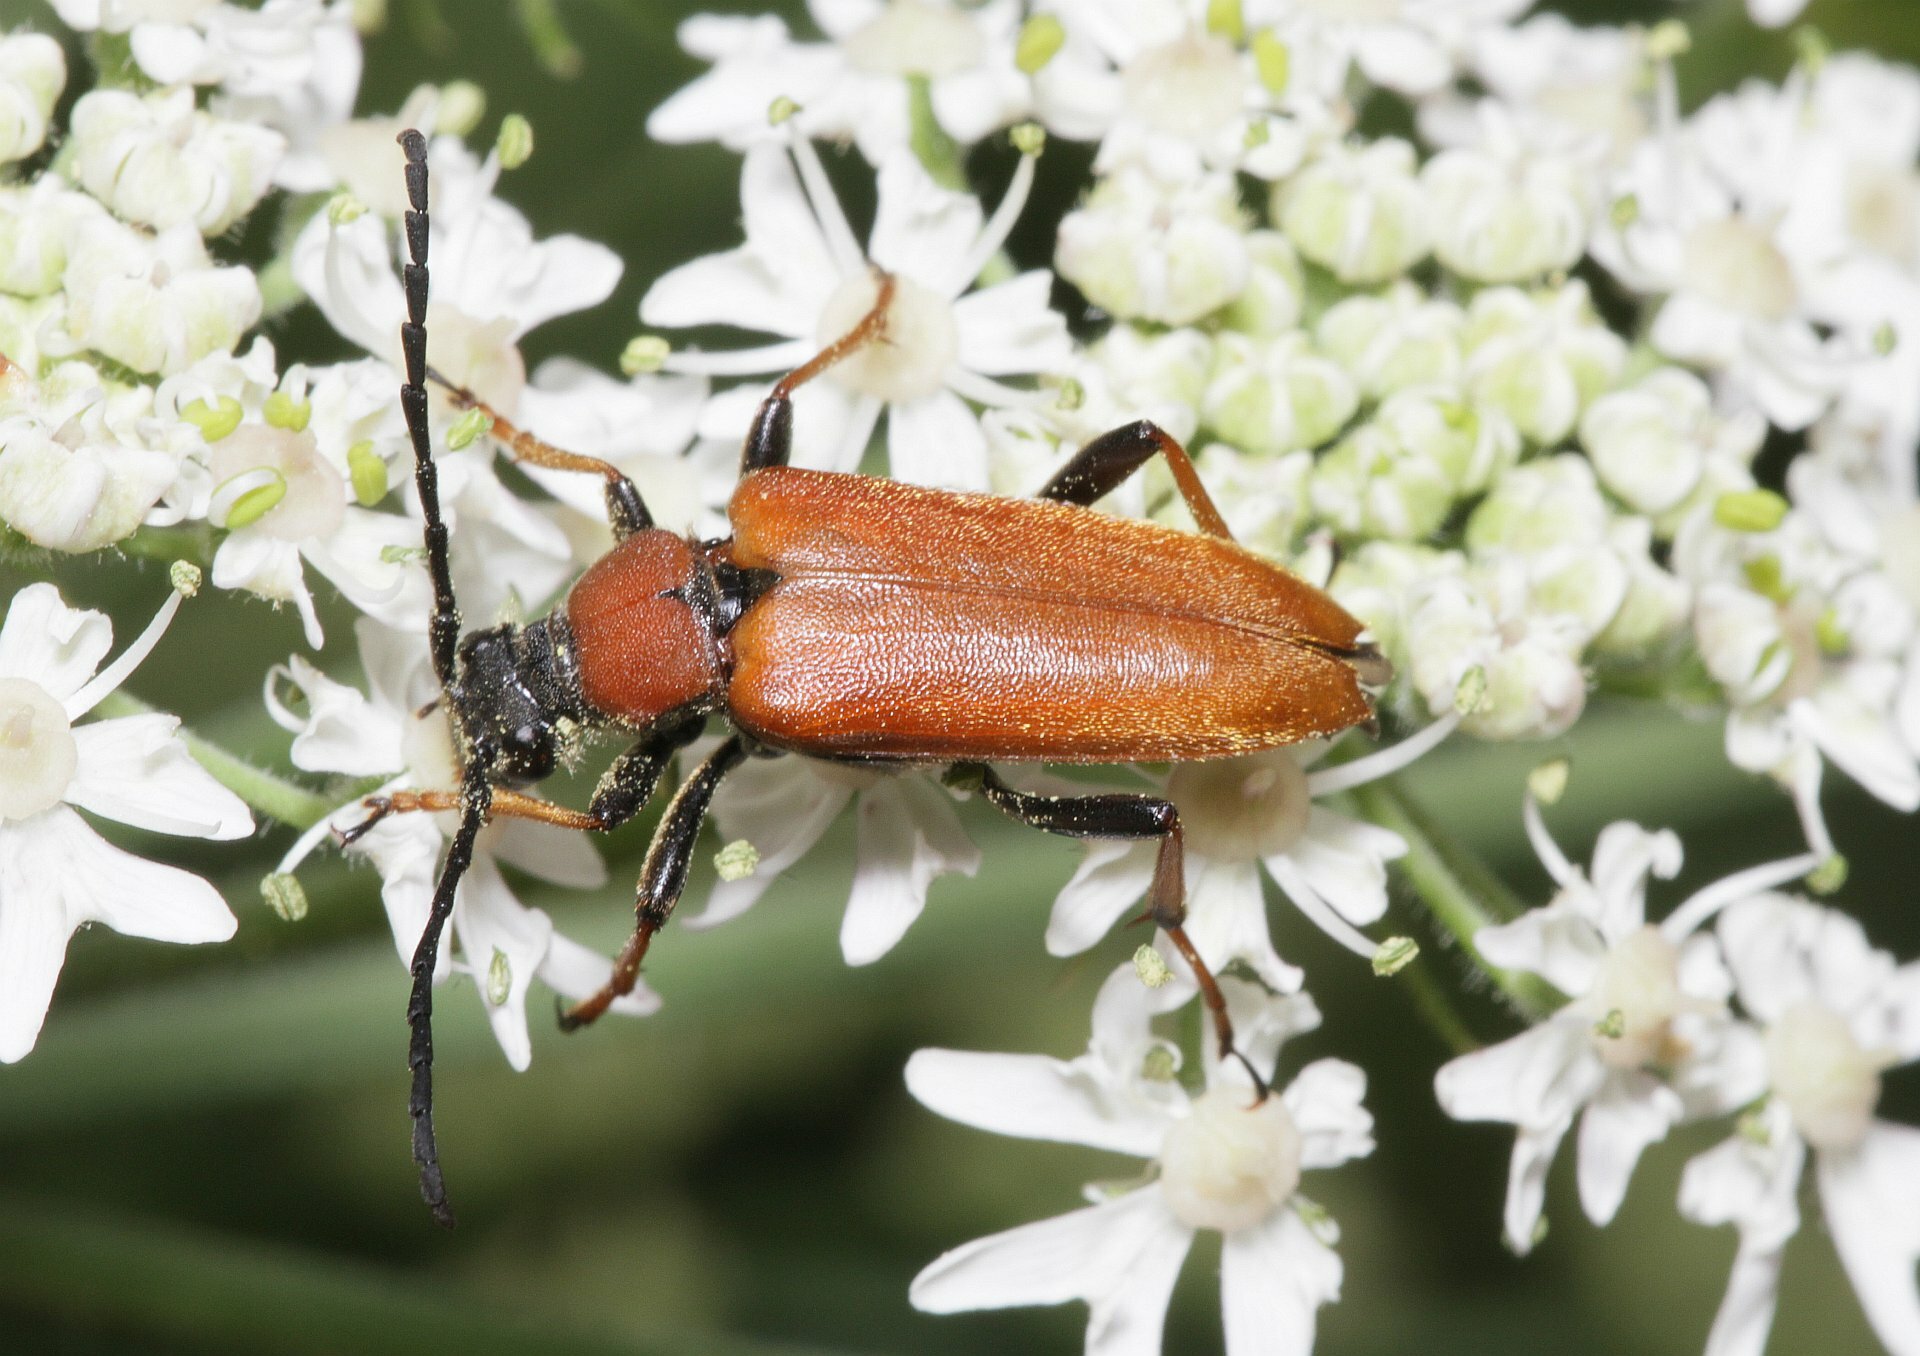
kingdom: Animalia
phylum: Arthropoda
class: Insecta
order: Coleoptera
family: Cerambycidae
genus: Stictoleptura
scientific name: Stictoleptura rubra
